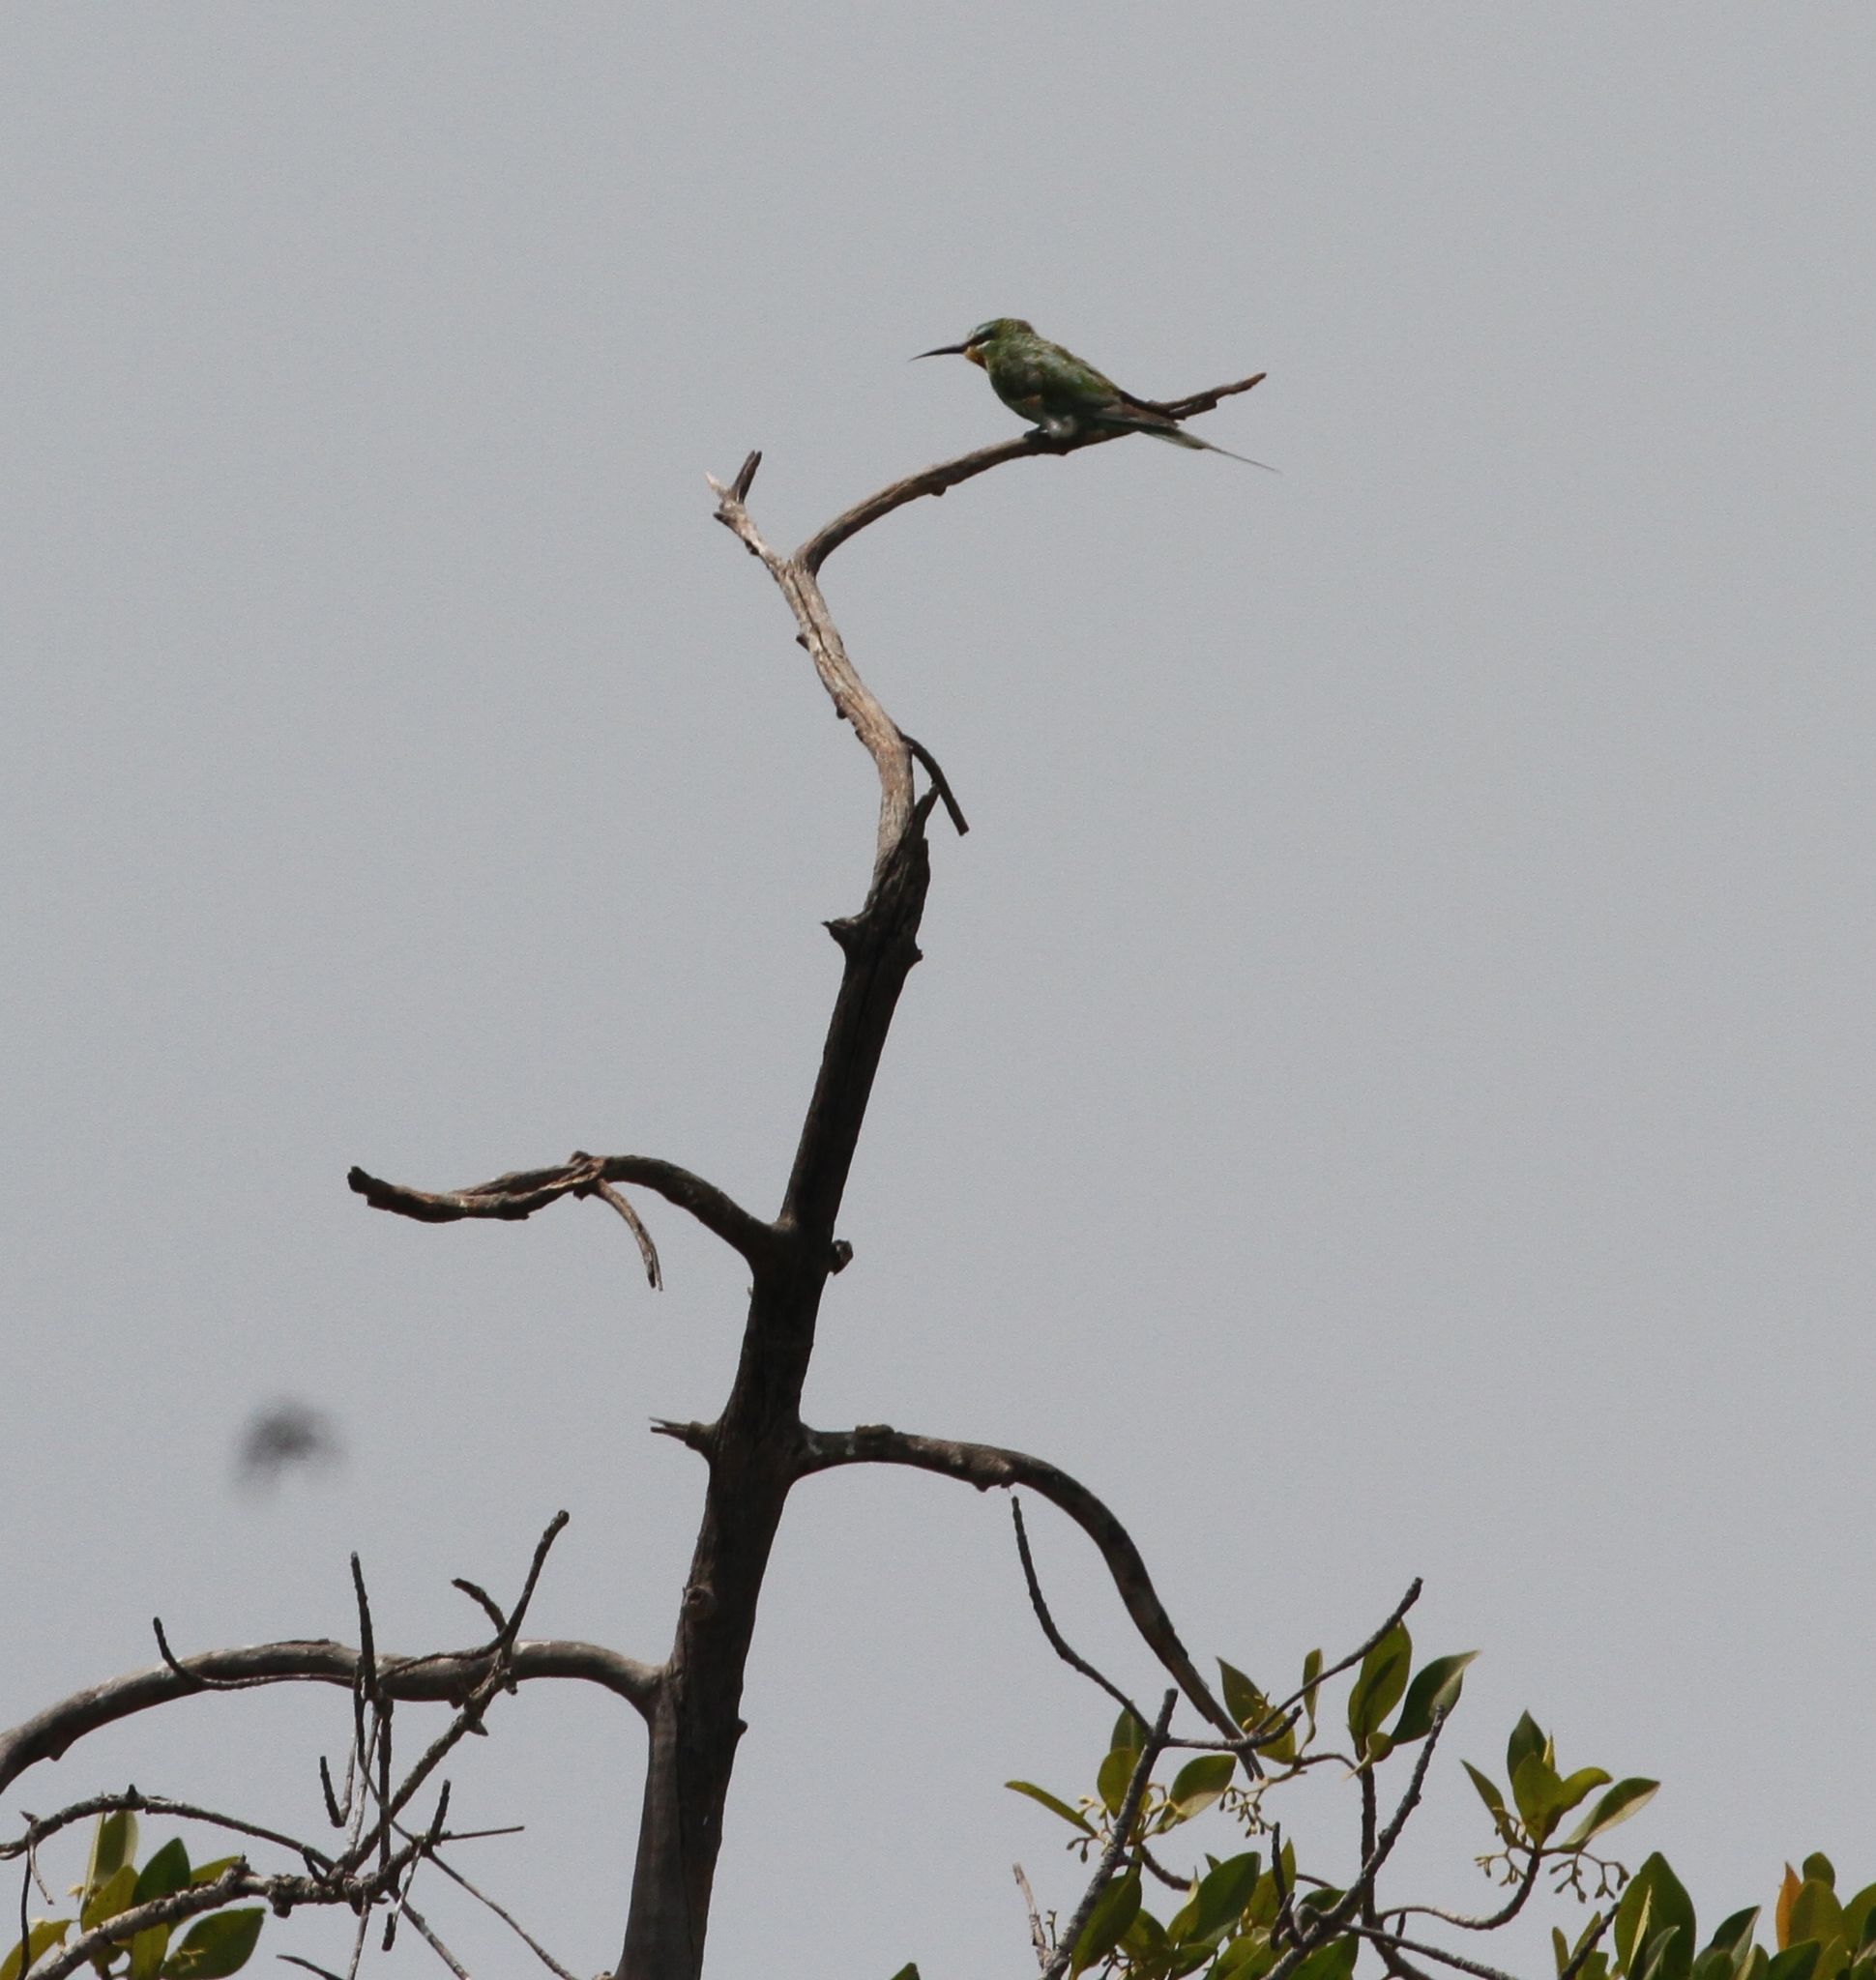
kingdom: Animalia
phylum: Chordata
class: Aves
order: Coraciiformes
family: Meropidae
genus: Merops
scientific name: Merops persicus
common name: Blue-cheeked bee-eater
